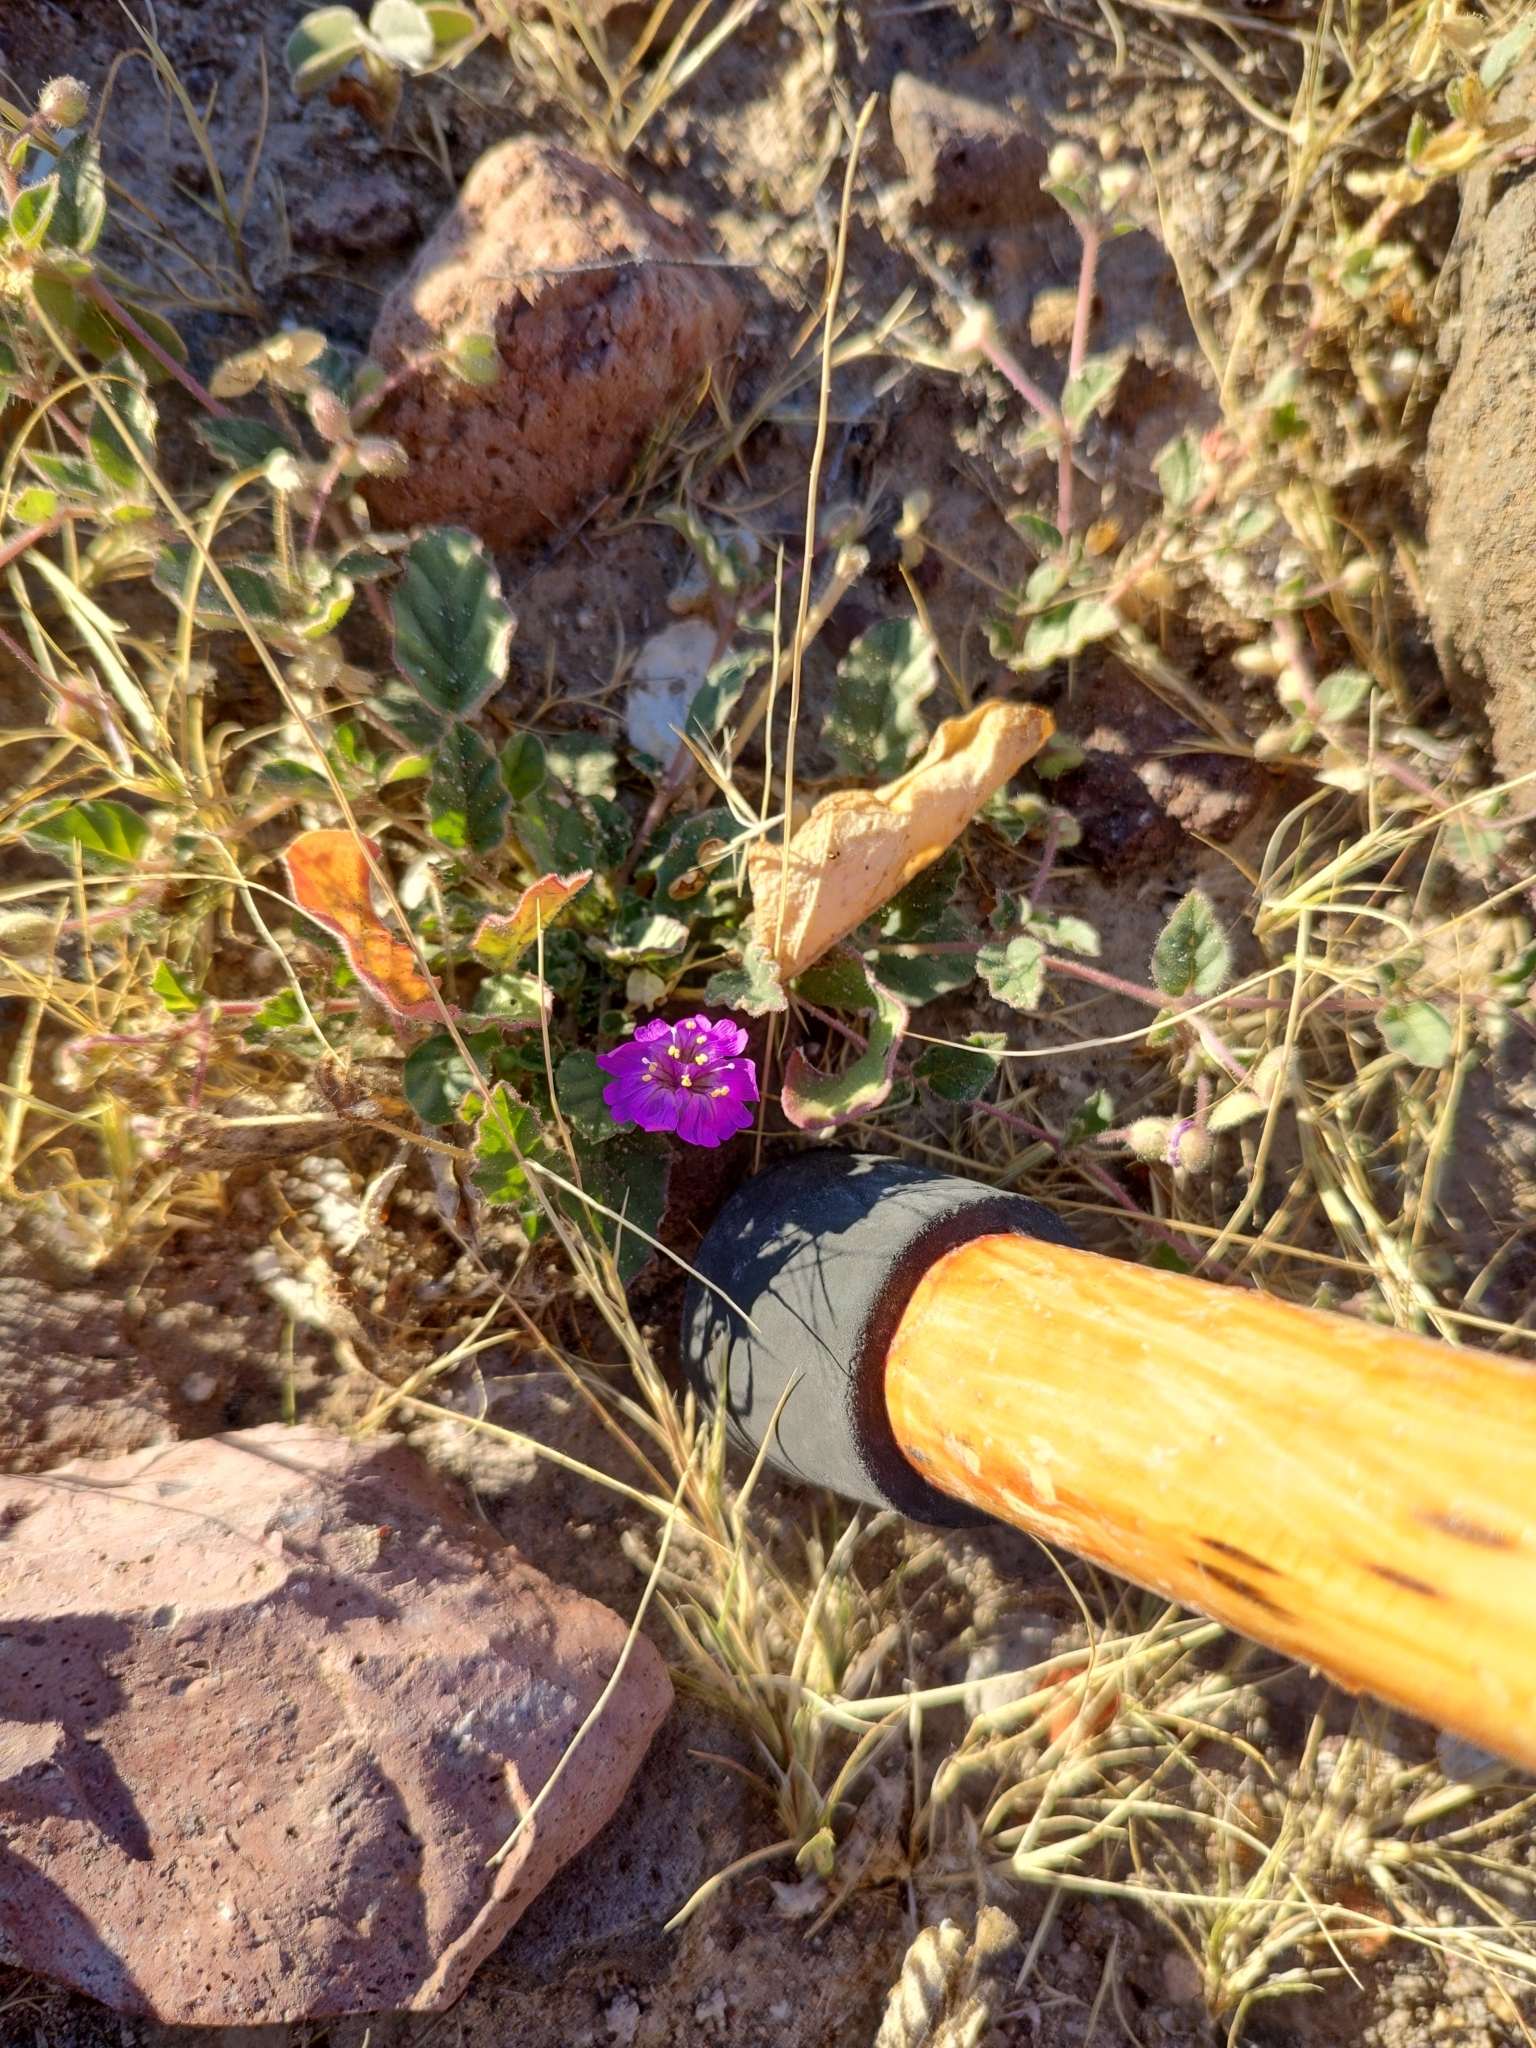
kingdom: Plantae
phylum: Tracheophyta
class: Magnoliopsida
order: Caryophyllales
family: Nyctaginaceae
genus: Allionia
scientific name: Allionia incarnata
